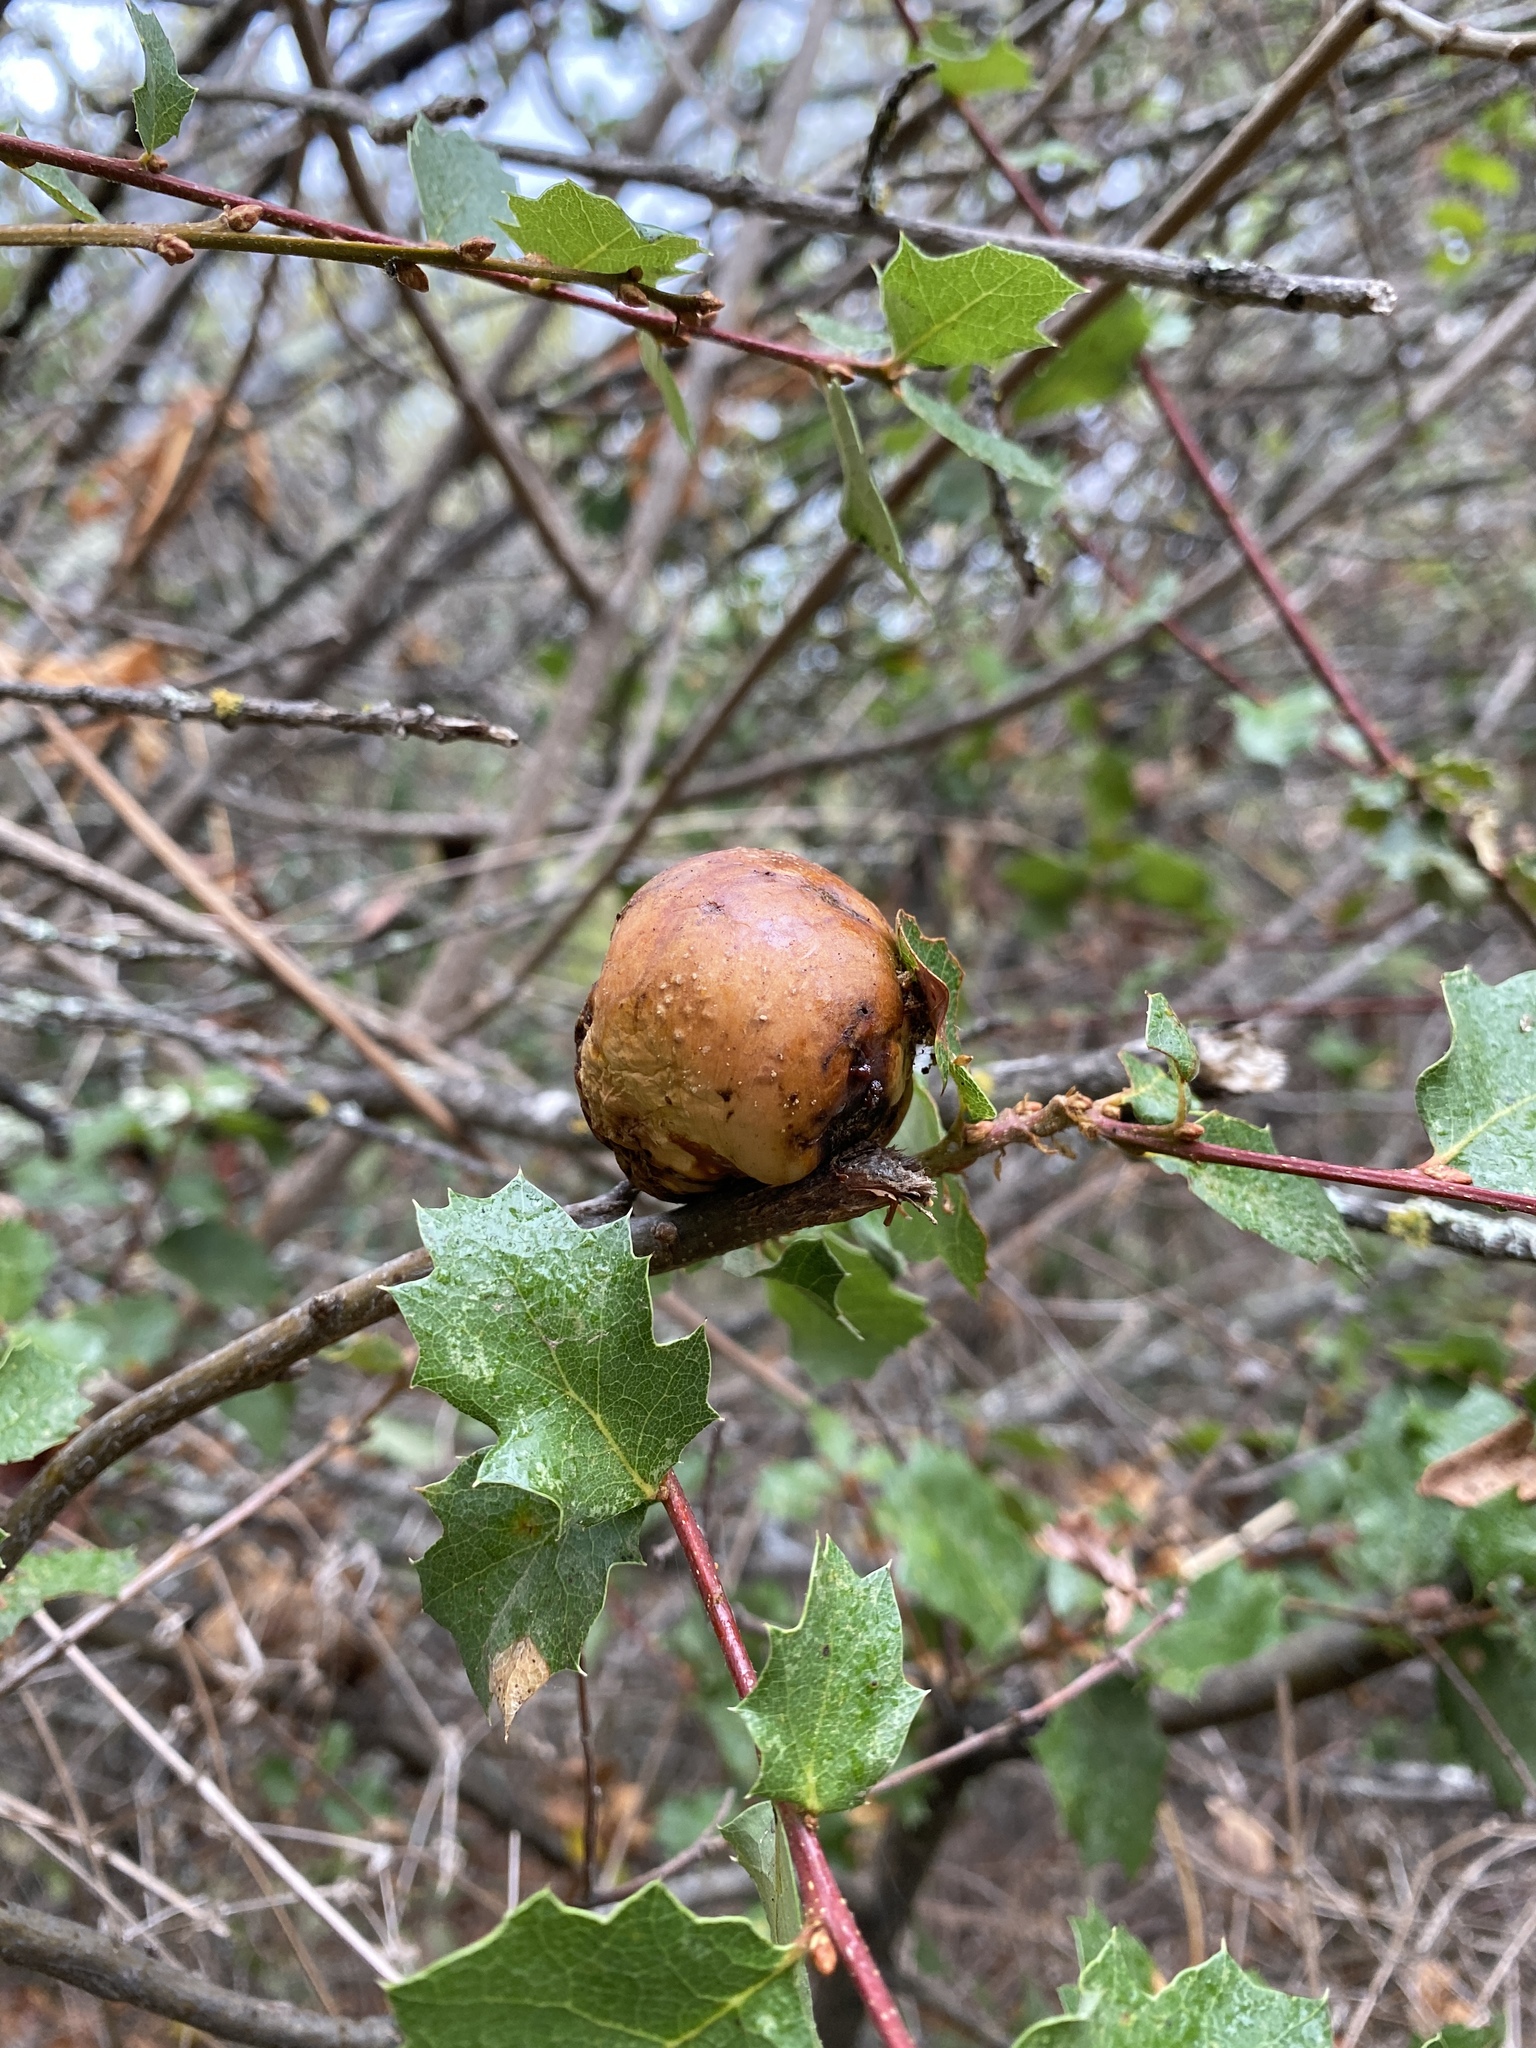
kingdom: Animalia
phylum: Arthropoda
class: Insecta
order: Hymenoptera
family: Cynipidae
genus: Andricus
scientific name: Andricus quercuscalifornicus
